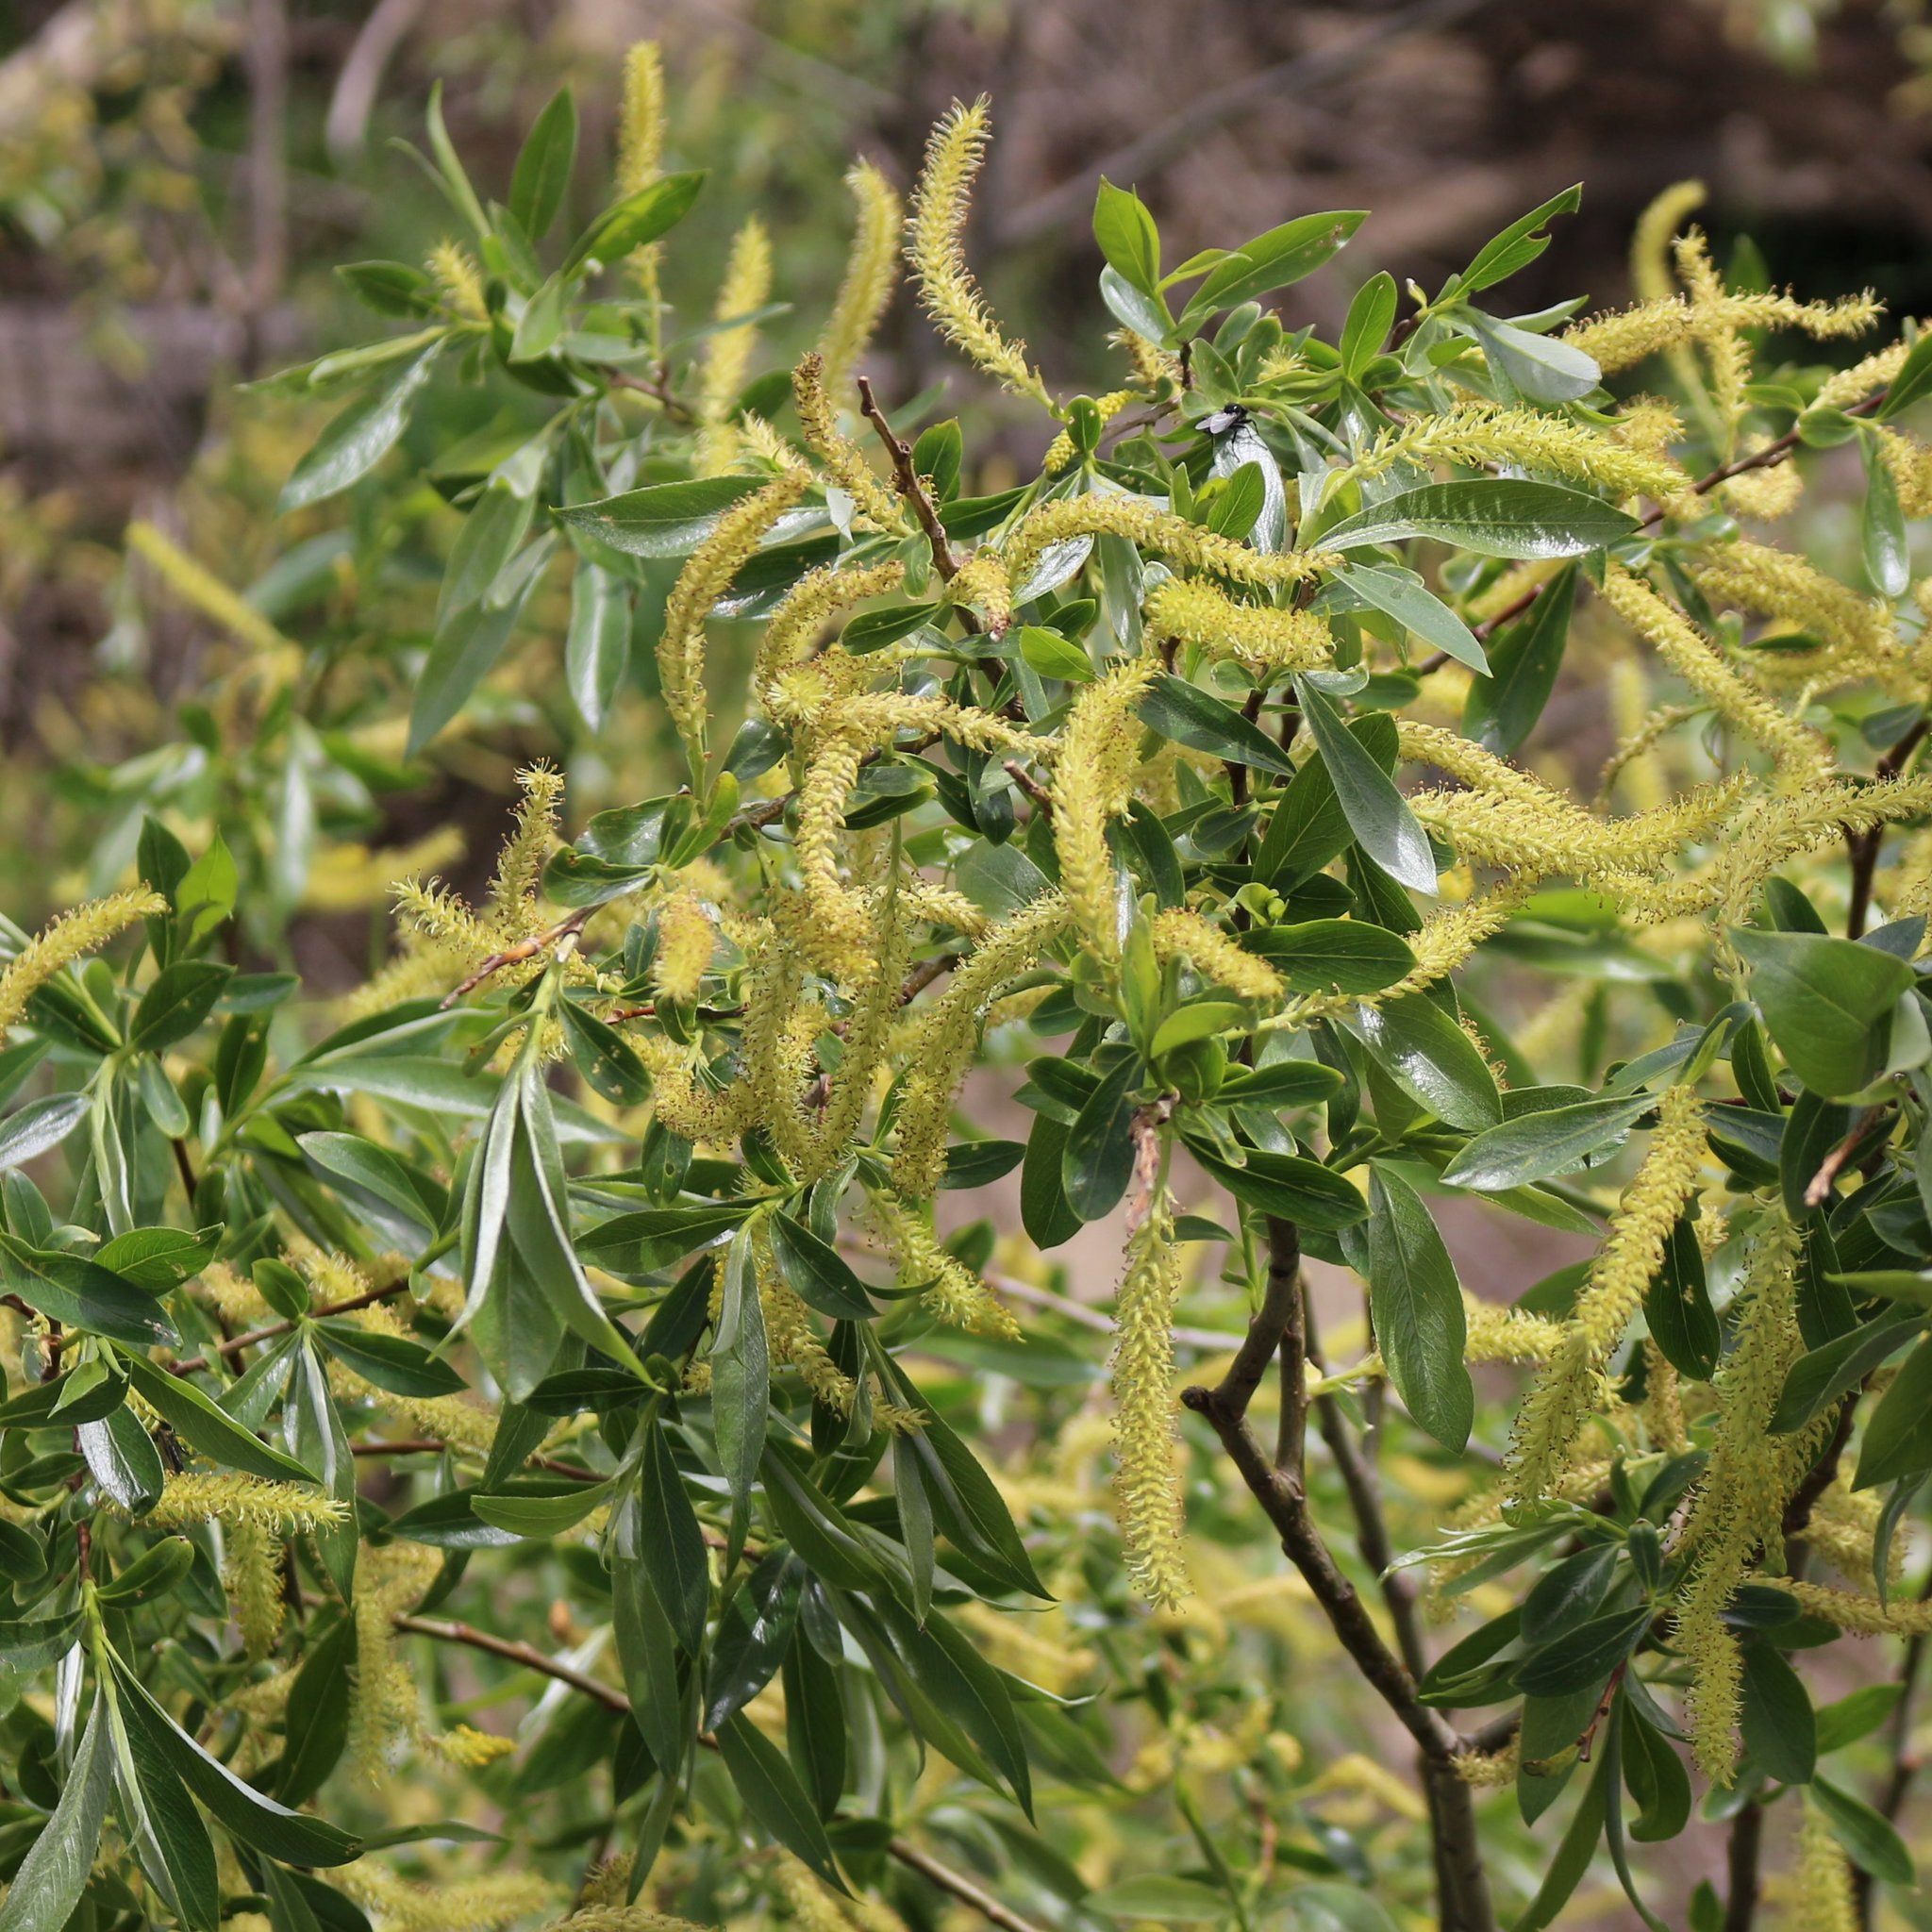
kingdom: Plantae
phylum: Tracheophyta
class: Magnoliopsida
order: Malpighiales
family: Salicaceae
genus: Salix
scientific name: Salix alba
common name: White willow
